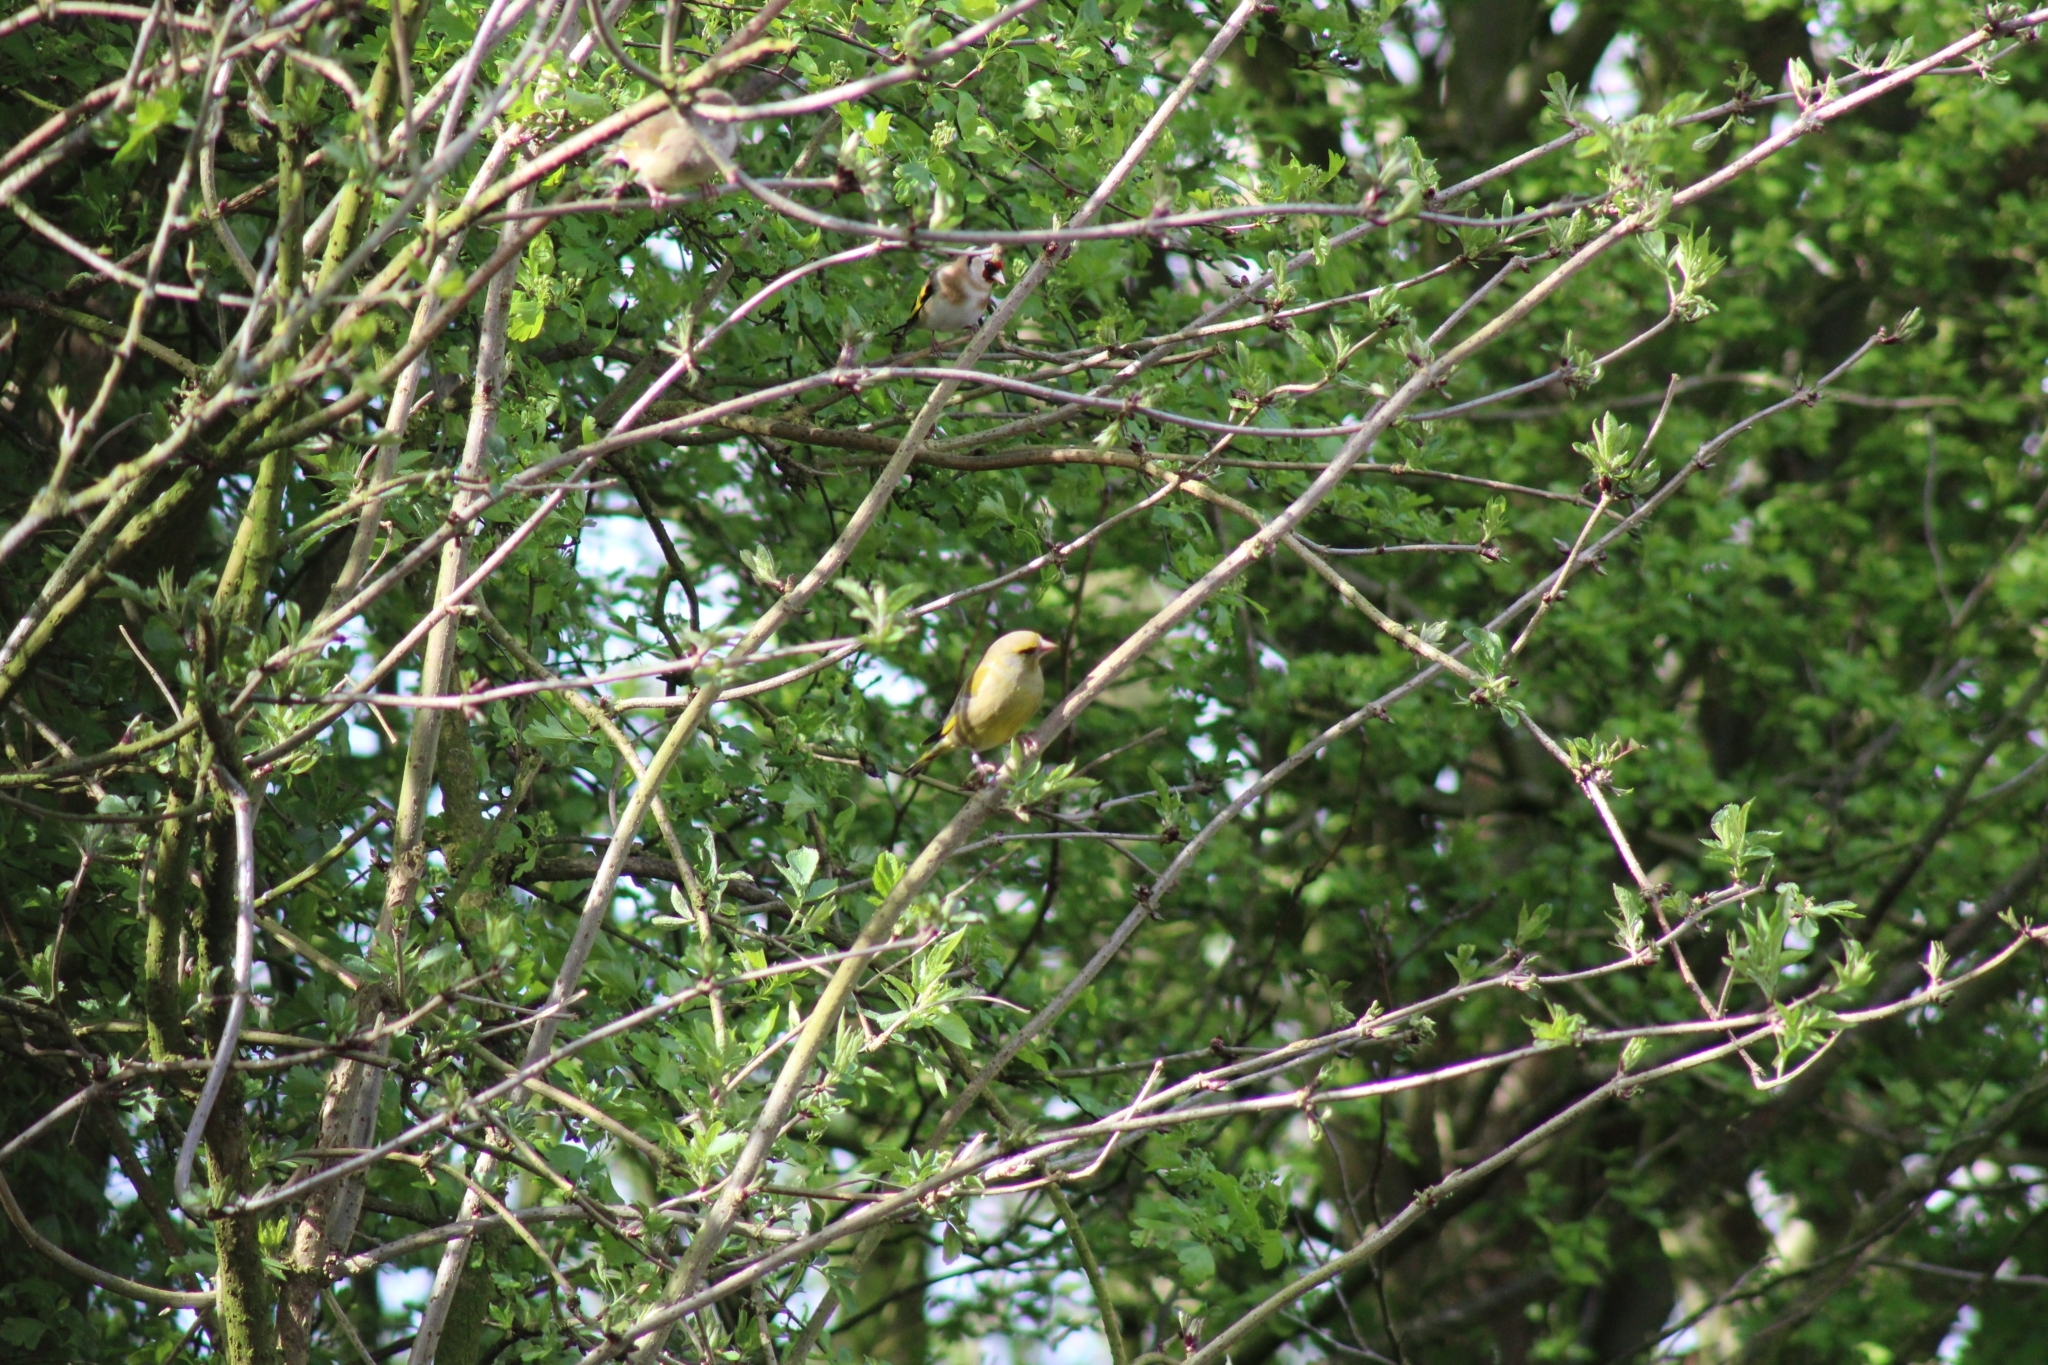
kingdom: Plantae
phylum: Tracheophyta
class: Liliopsida
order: Poales
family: Poaceae
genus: Chloris
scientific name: Chloris chloris
